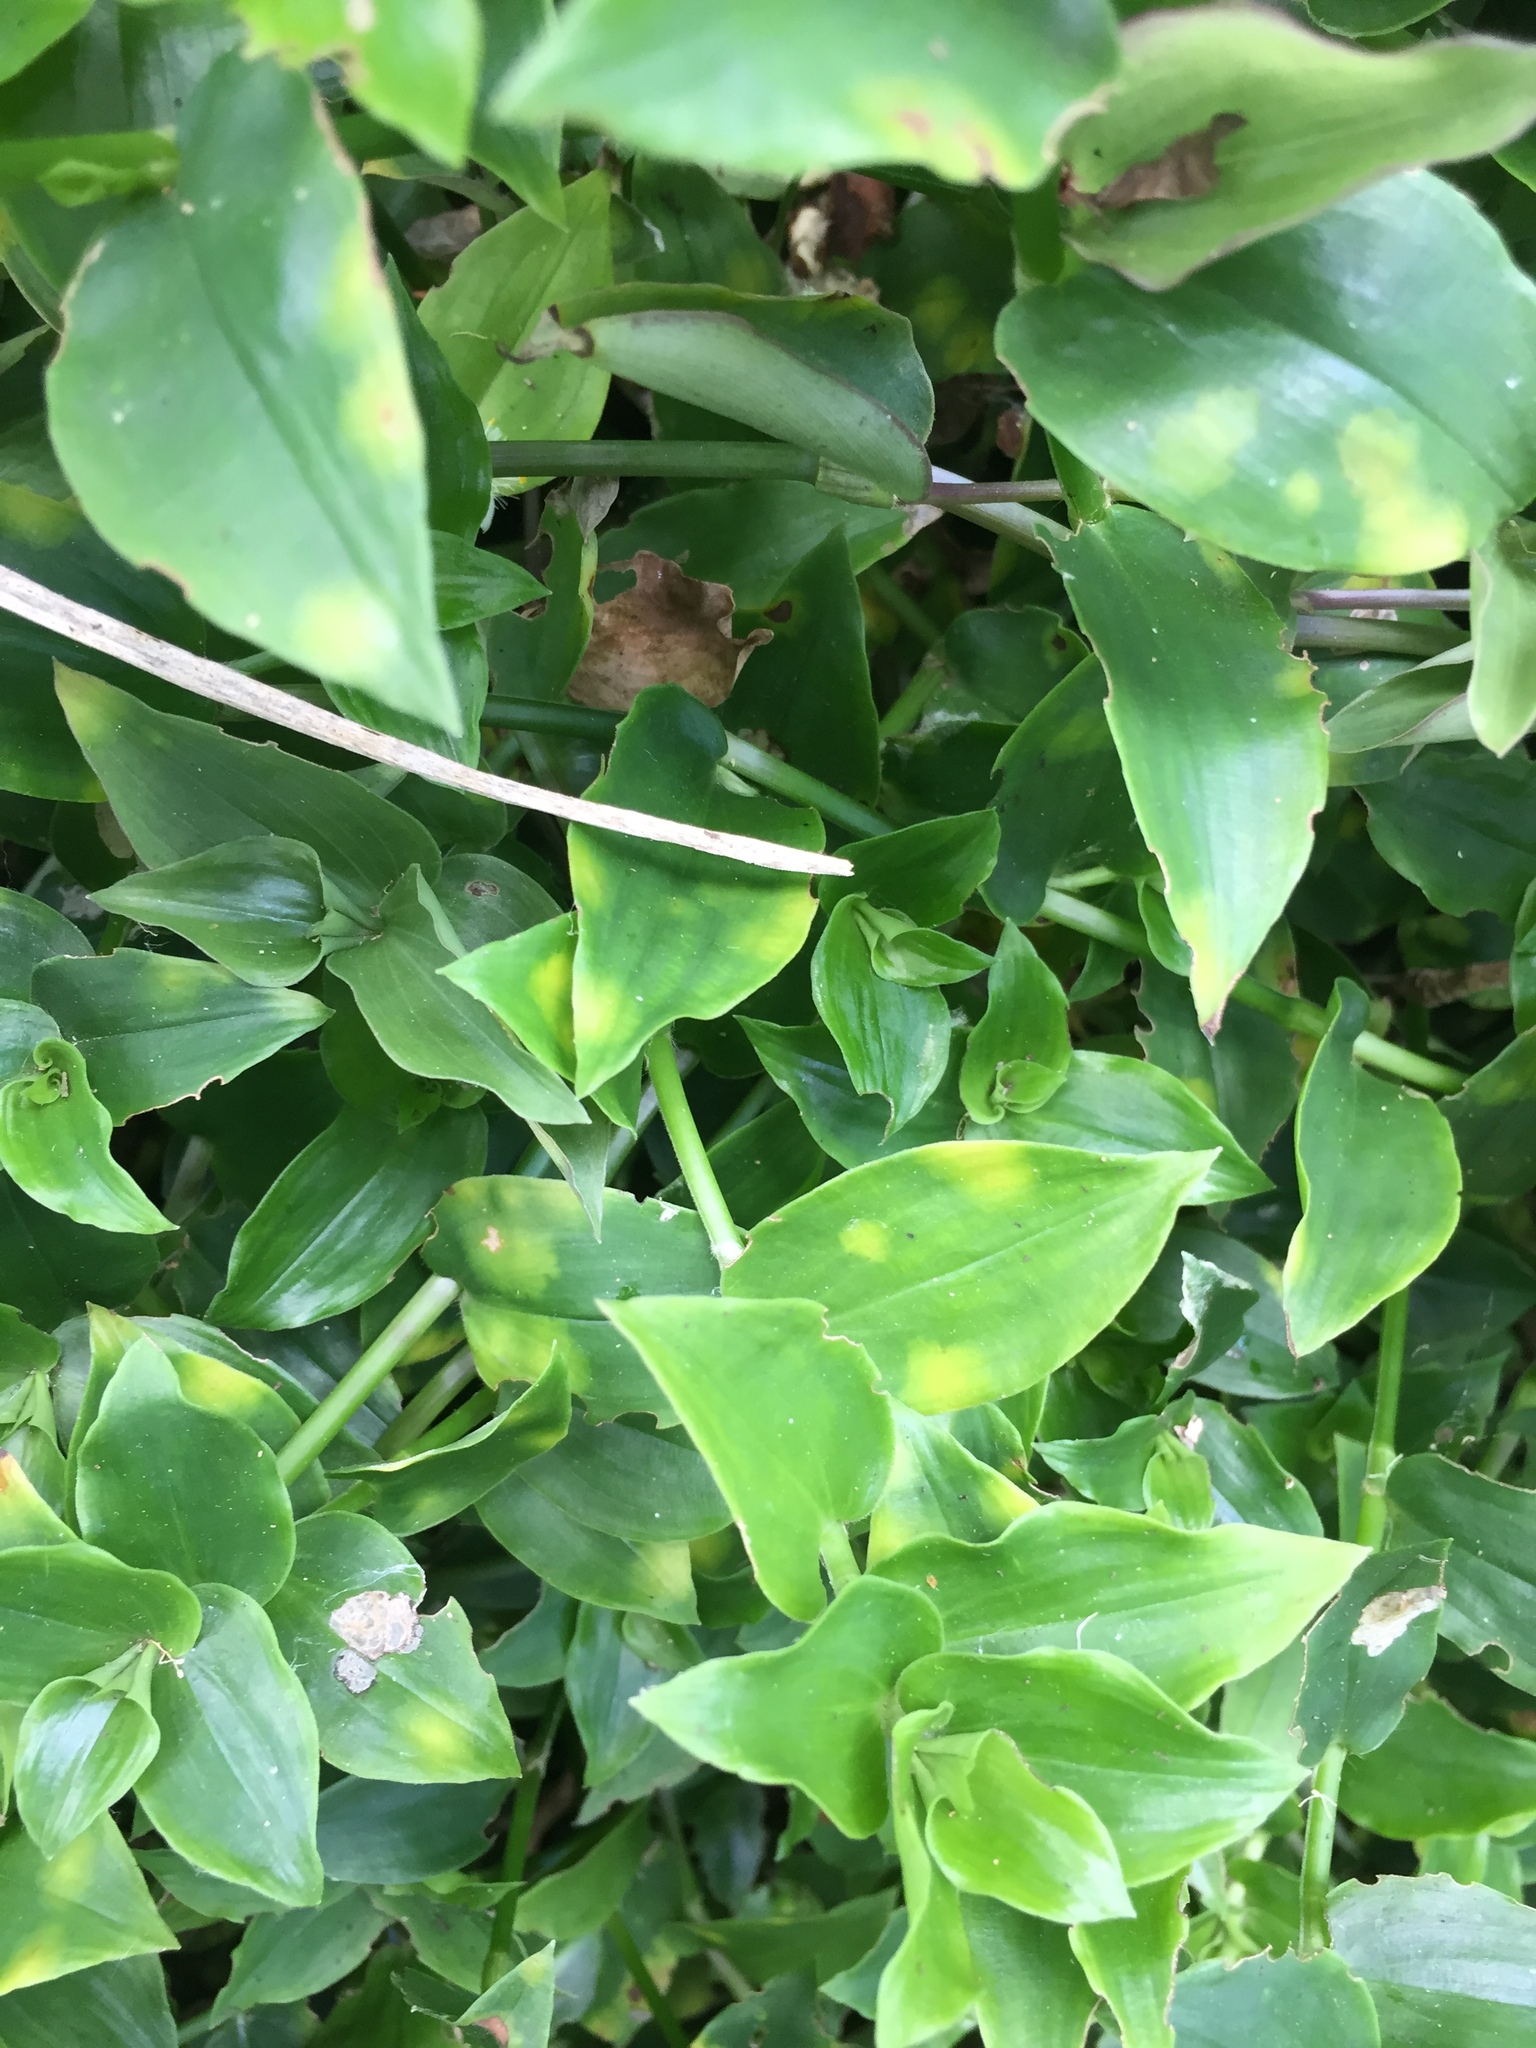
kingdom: Fungi
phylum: Basidiomycota
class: Exobasidiomycetes
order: Exobasidiales
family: Brachybasidiaceae
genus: Kordyana
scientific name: Kordyana brasiliensis
